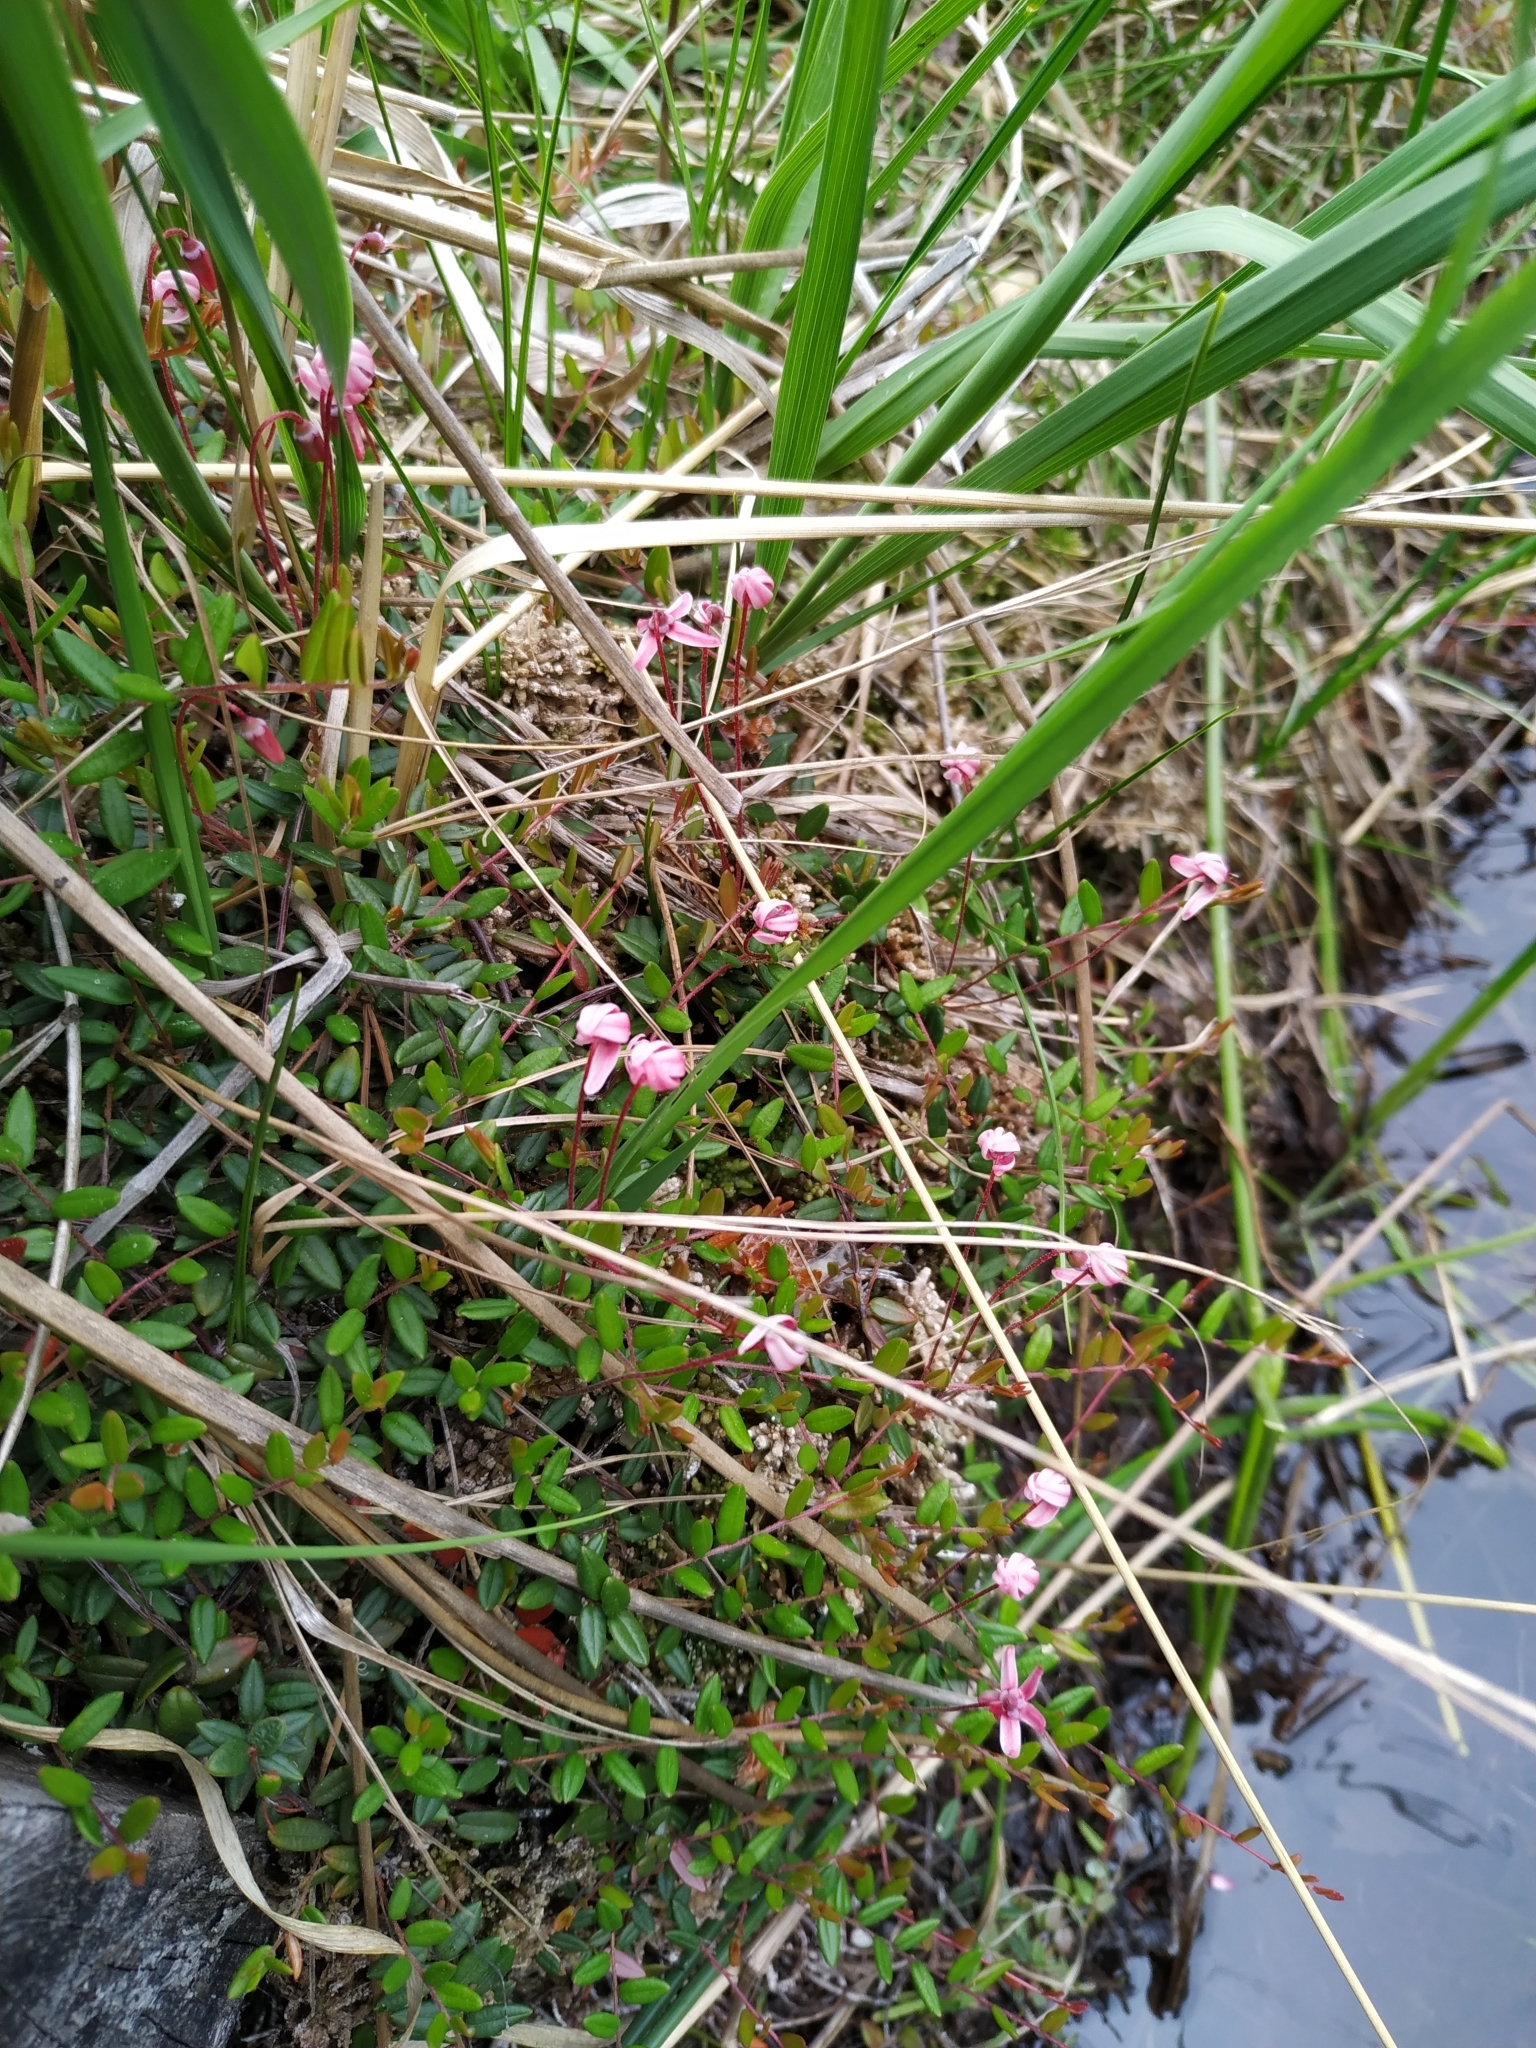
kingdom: Plantae
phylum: Tracheophyta
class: Magnoliopsida
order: Ericales
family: Ericaceae
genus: Vaccinium
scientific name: Vaccinium oxycoccos
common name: Cranberry
